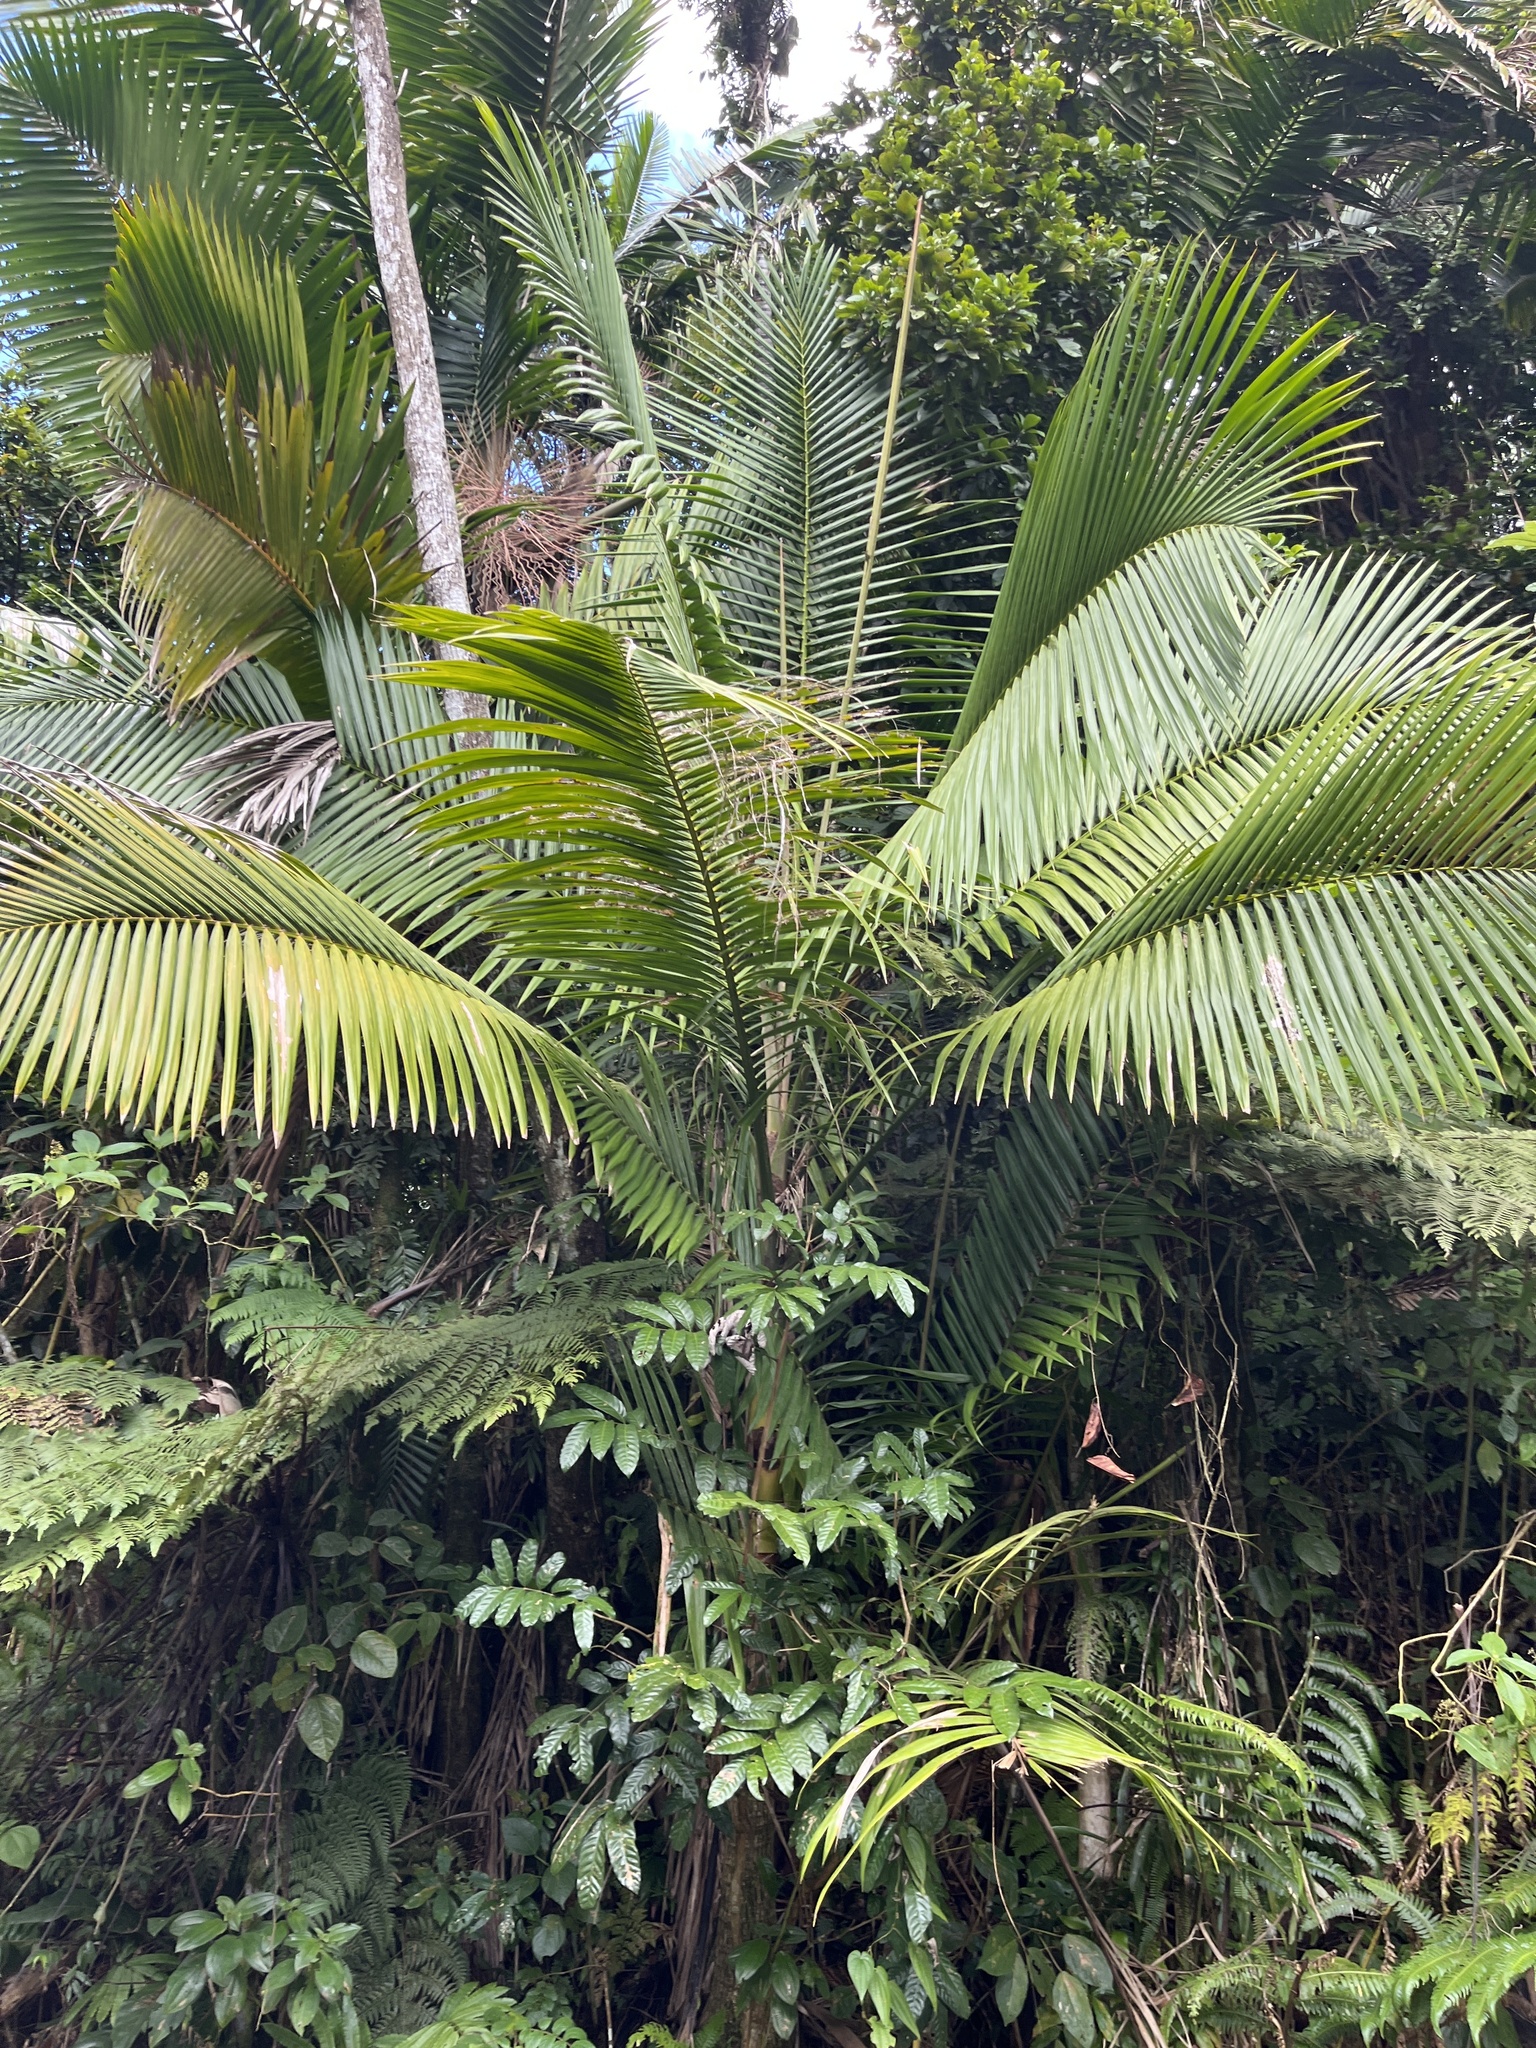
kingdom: Plantae
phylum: Tracheophyta
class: Liliopsida
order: Arecales
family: Arecaceae
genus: Prestoea
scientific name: Prestoea acuminata
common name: Sierran palm
